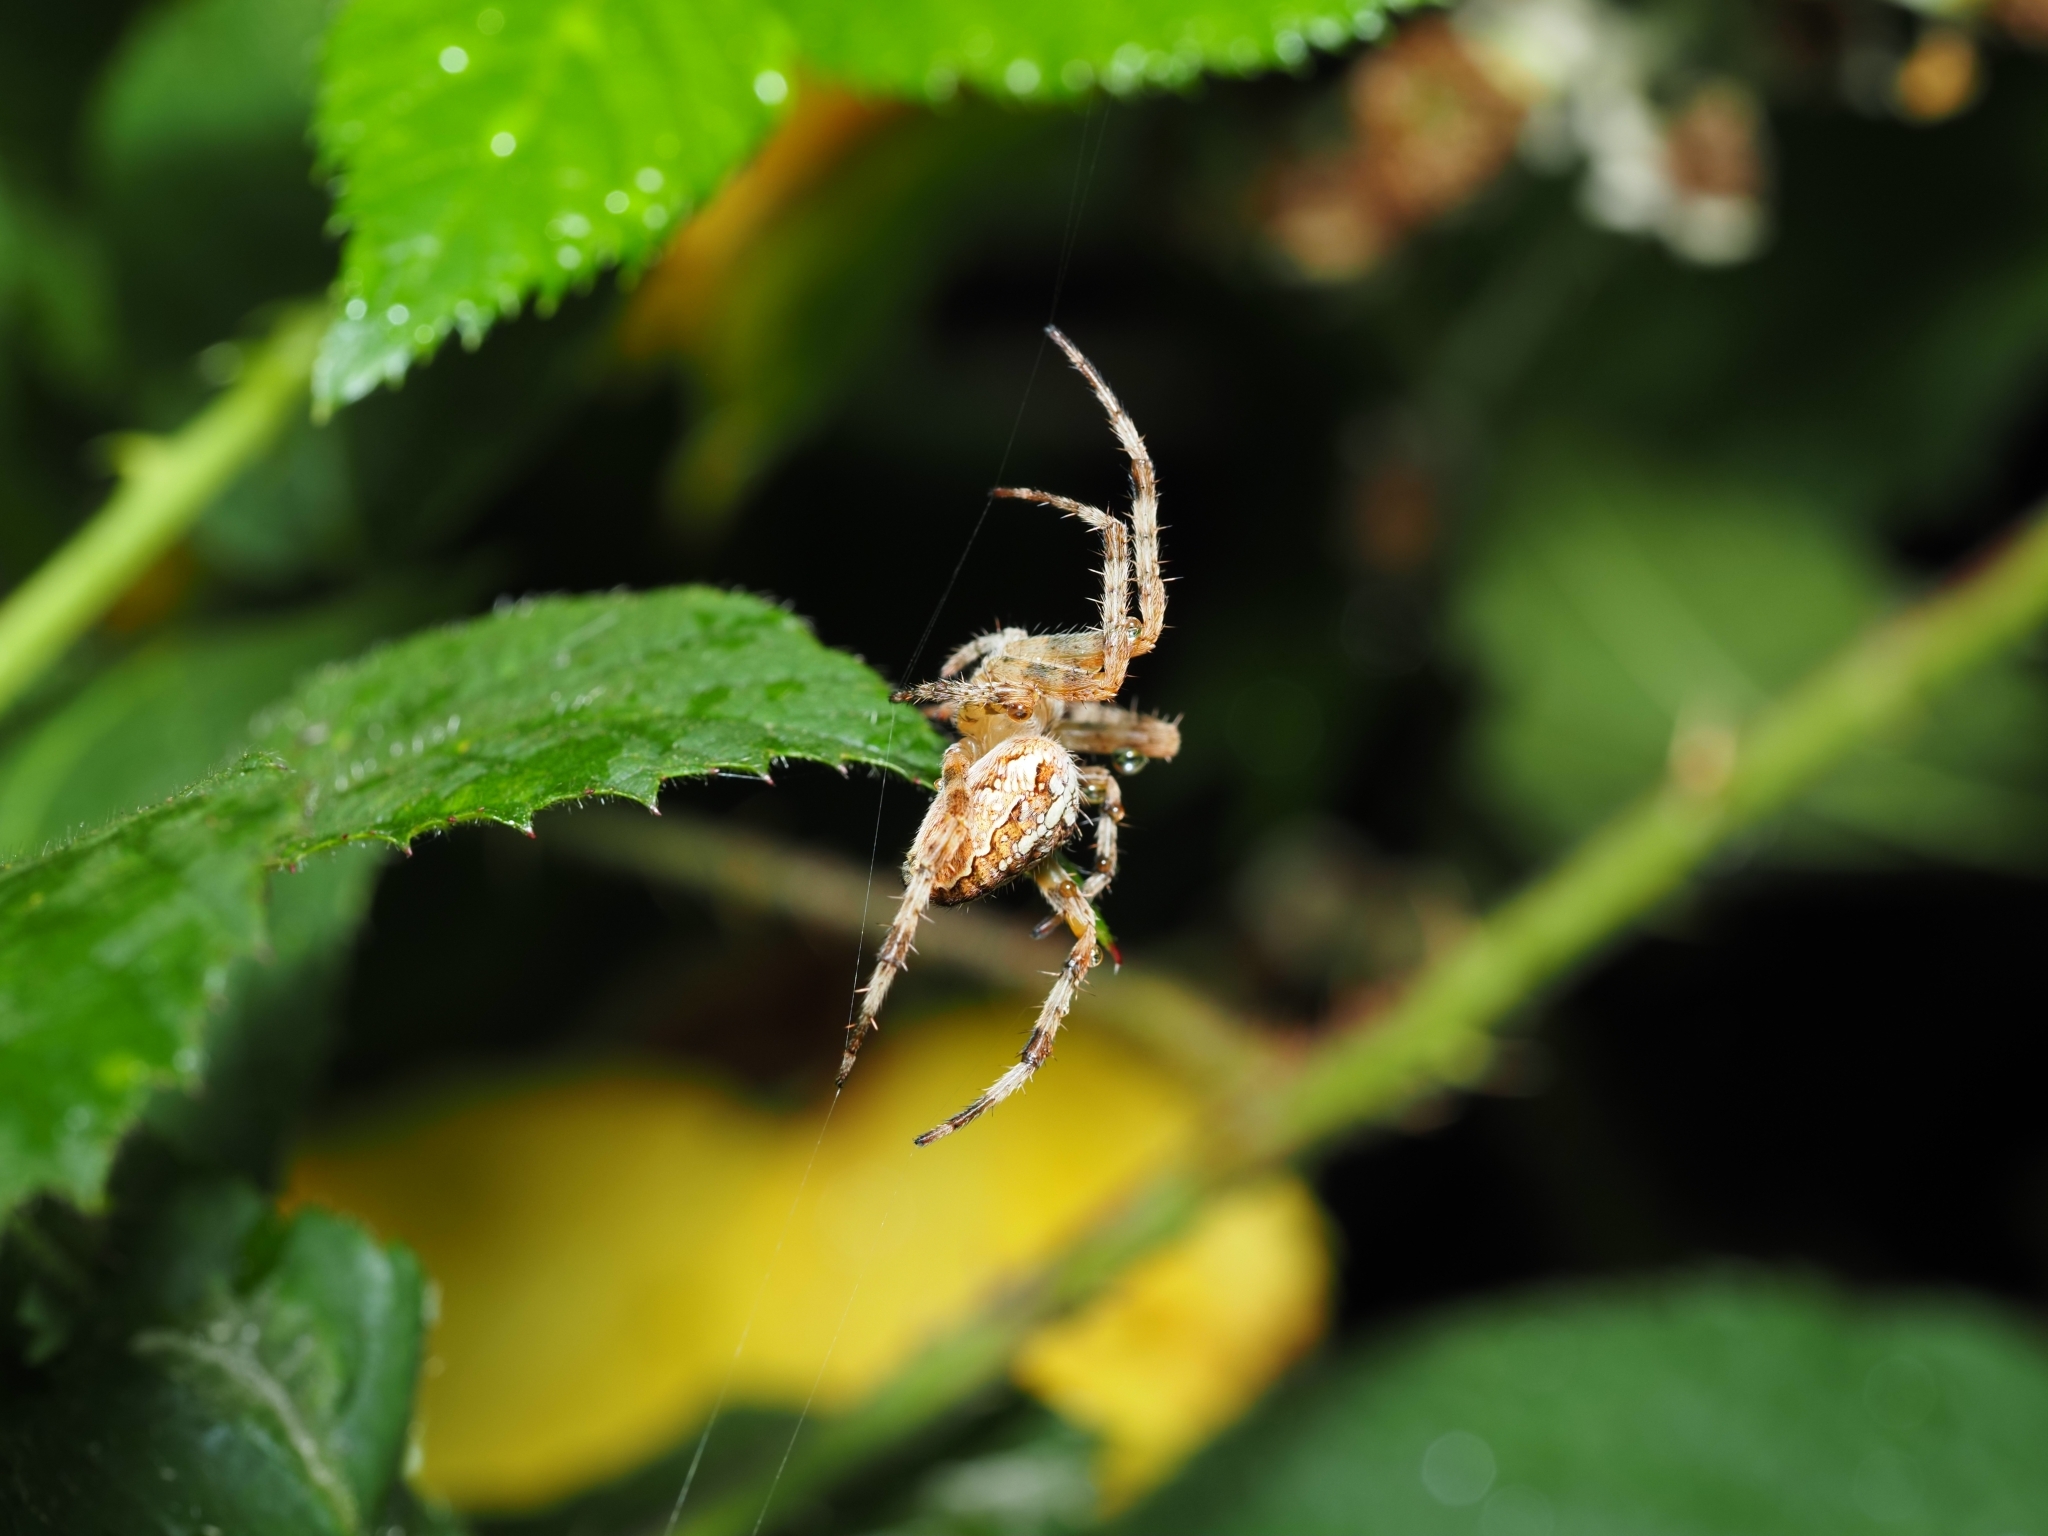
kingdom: Animalia
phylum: Arthropoda
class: Arachnida
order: Araneae
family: Araneidae
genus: Araneus
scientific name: Araneus diadematus
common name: Cross orbweaver
